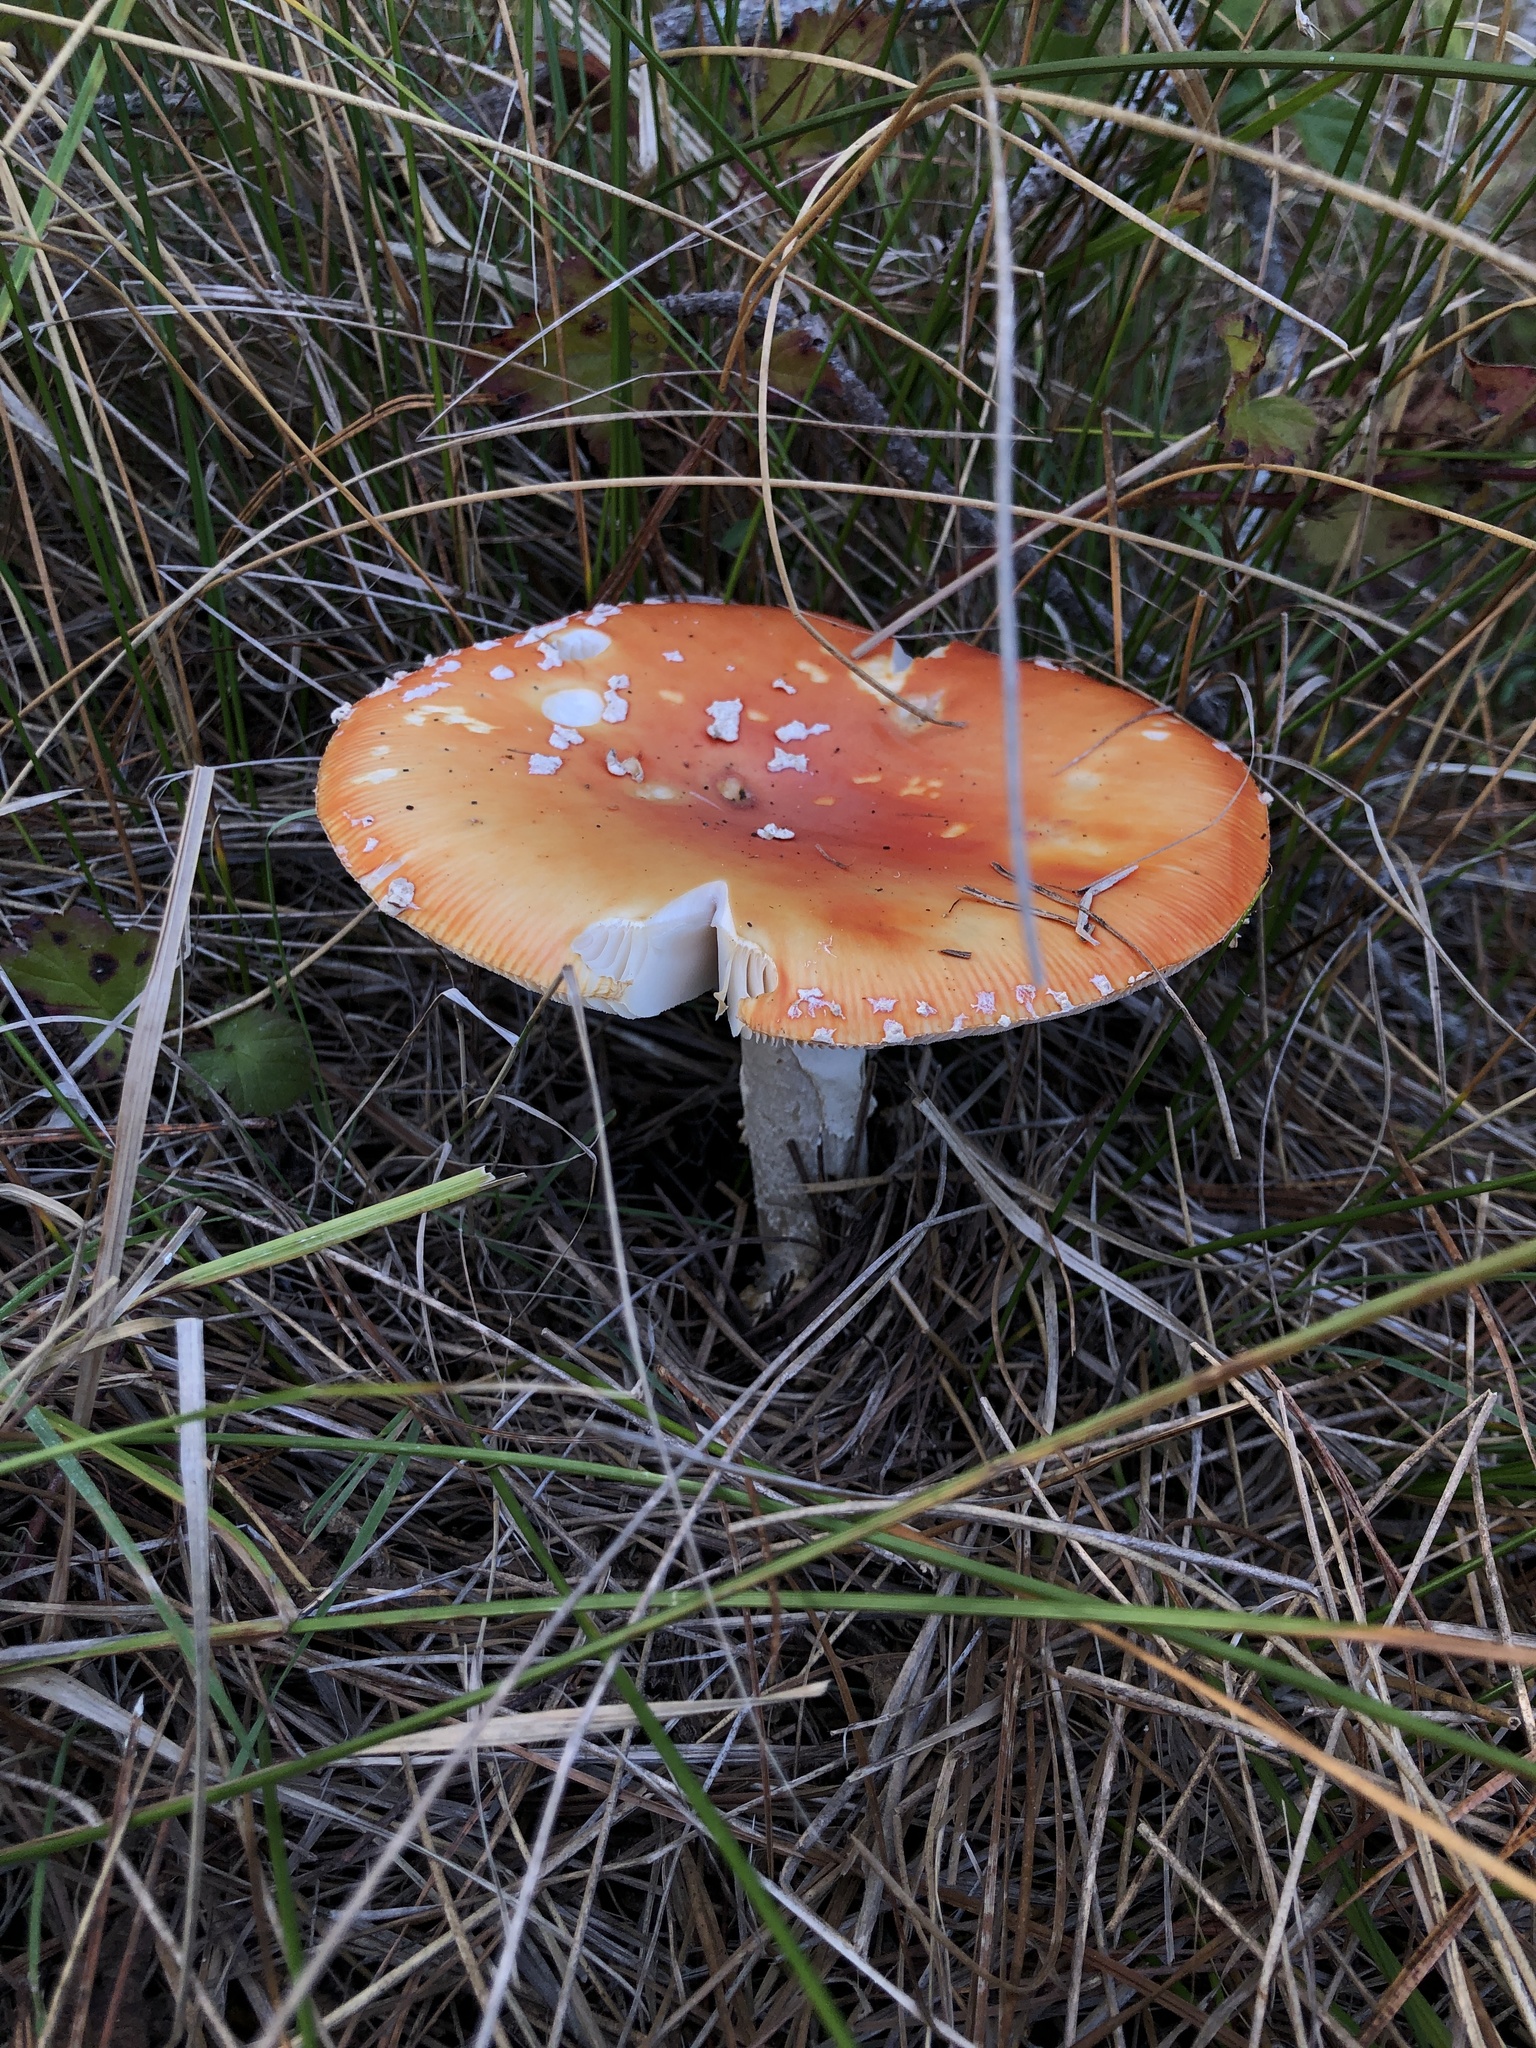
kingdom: Fungi
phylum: Basidiomycota
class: Agaricomycetes
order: Agaricales
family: Amanitaceae
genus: Amanita
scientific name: Amanita muscaria
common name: Fly agaric
